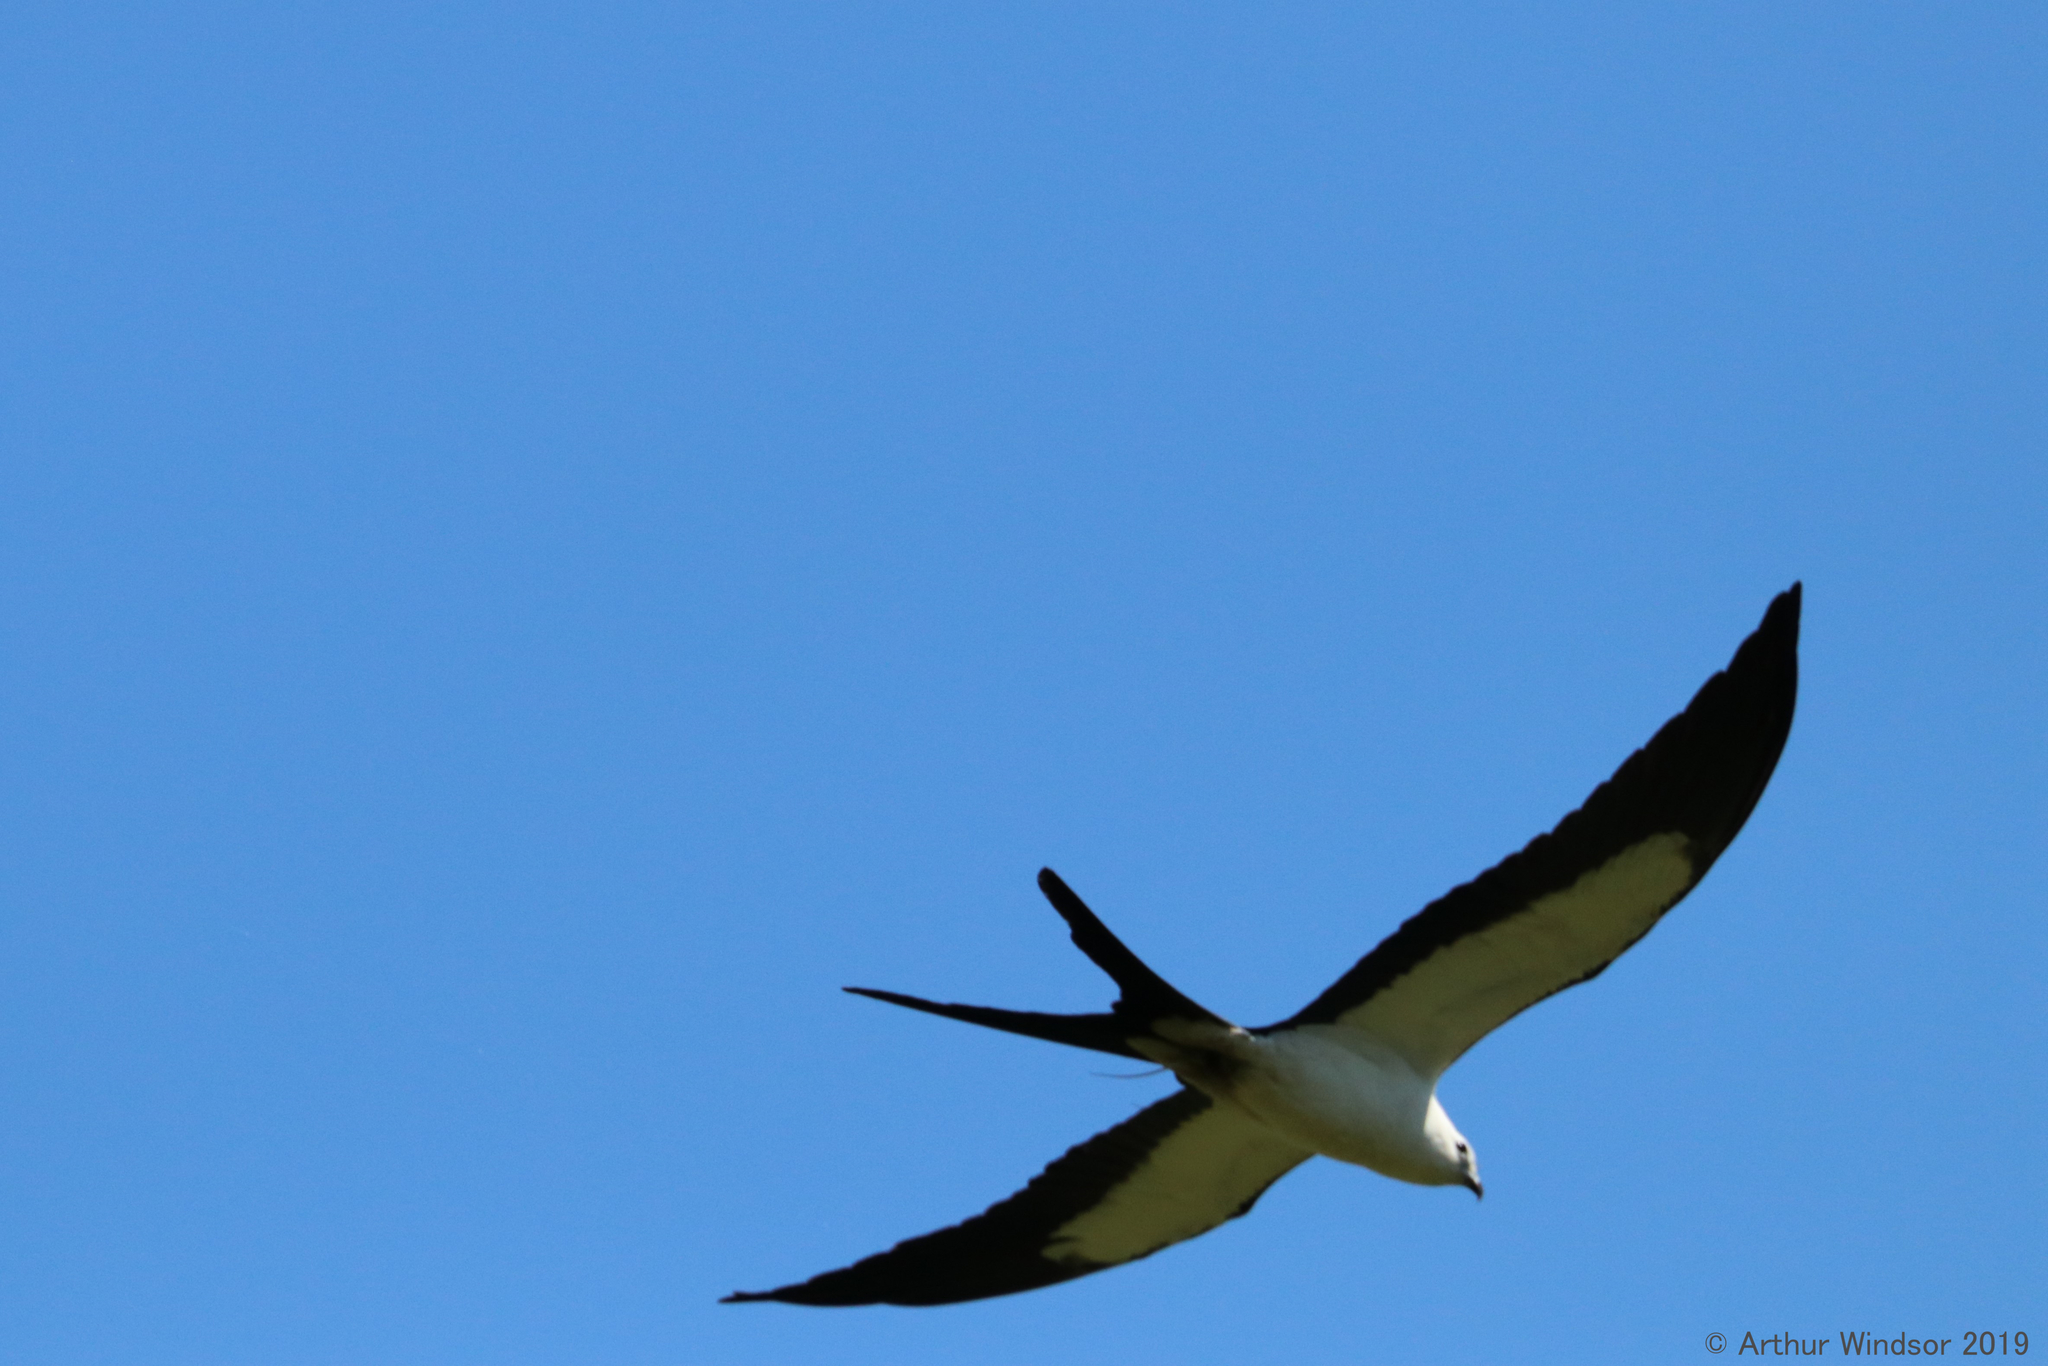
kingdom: Animalia
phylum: Chordata
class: Aves
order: Accipitriformes
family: Accipitridae
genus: Elanoides
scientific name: Elanoides forficatus
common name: Swallow-tailed kite
